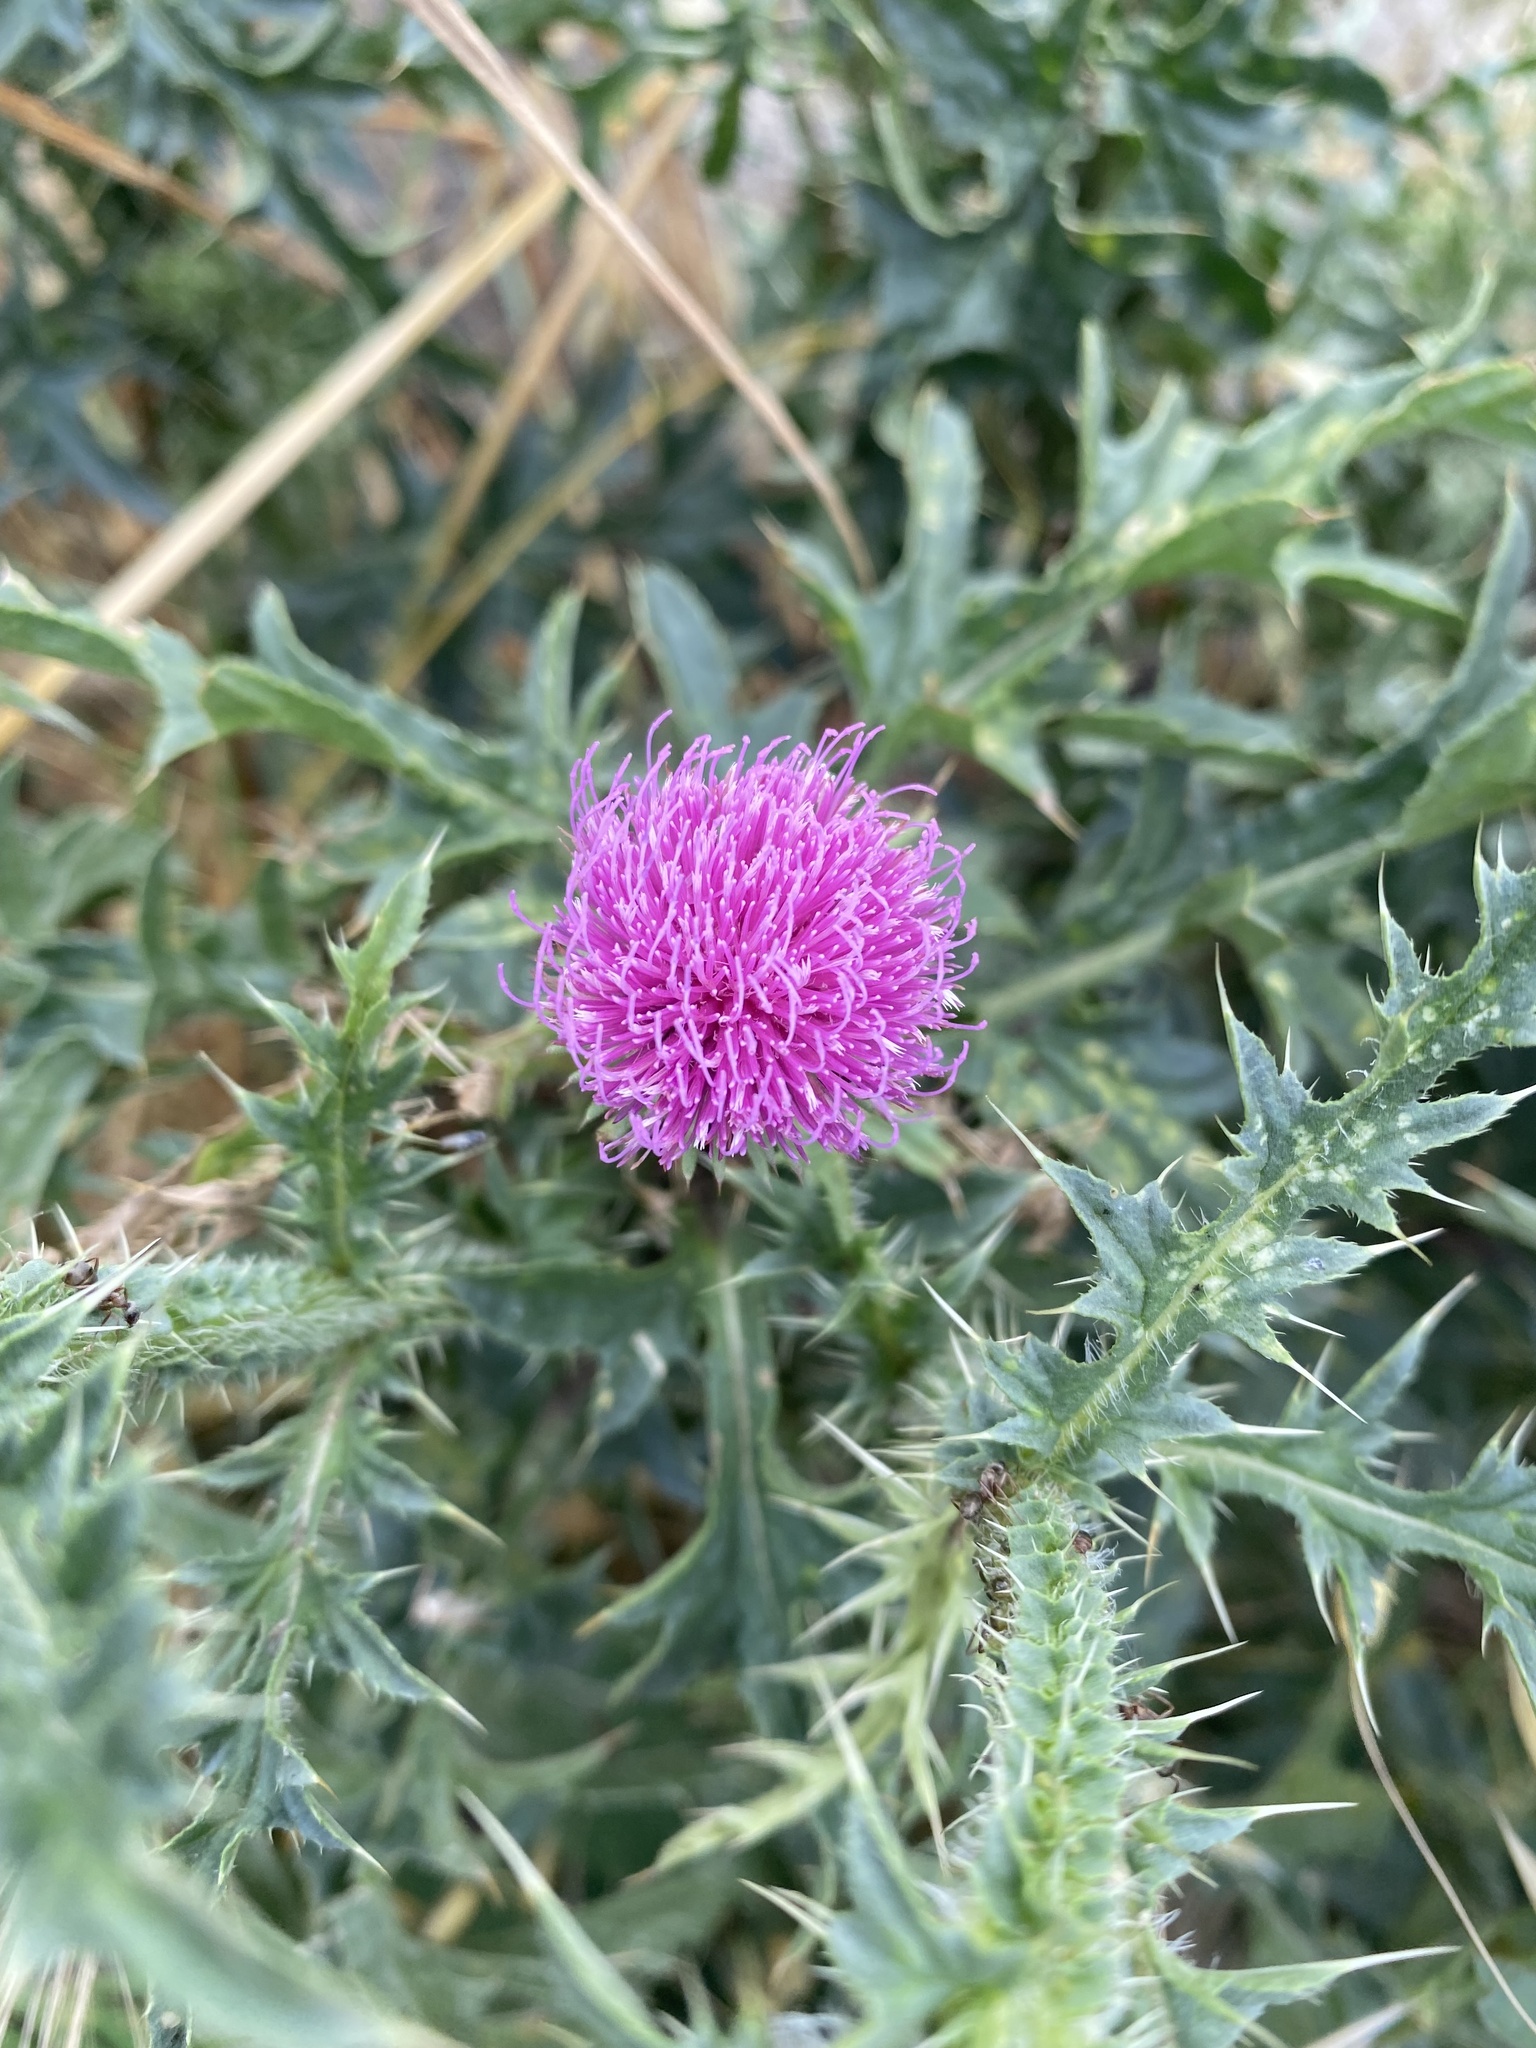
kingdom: Plantae
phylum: Tracheophyta
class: Magnoliopsida
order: Asterales
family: Asteraceae
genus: Carduus
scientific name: Carduus acanthoides
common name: Plumeless thistle
